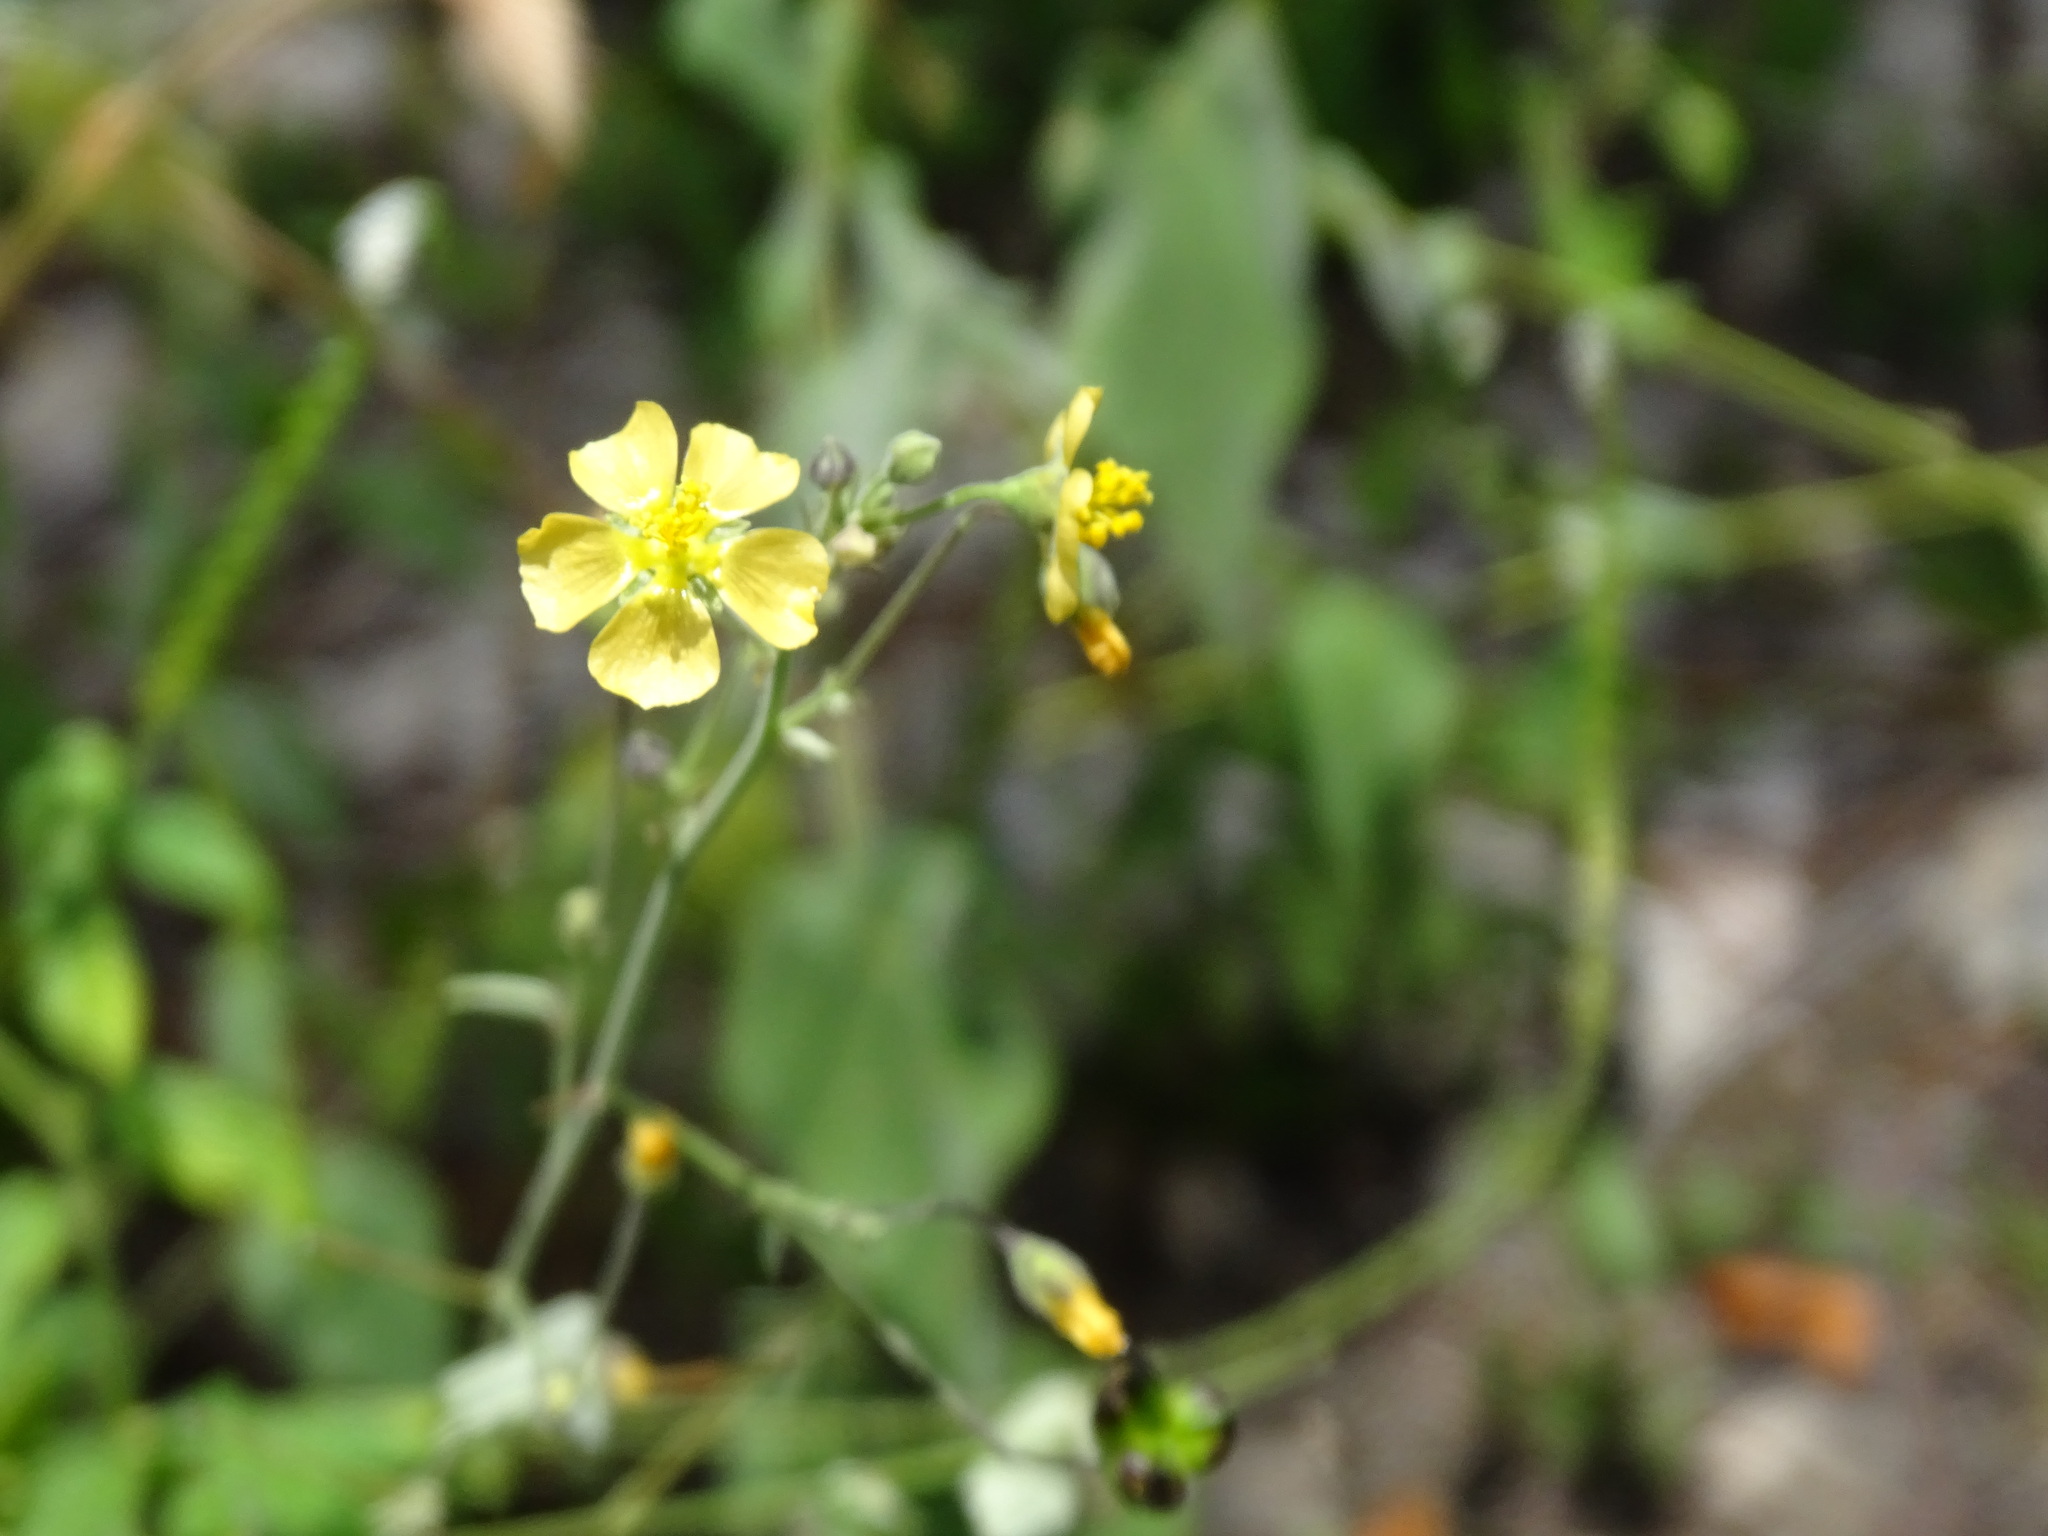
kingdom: Plantae
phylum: Tracheophyta
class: Magnoliopsida
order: Malvales
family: Malvaceae
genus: Wissadula
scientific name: Wissadula amplissima
